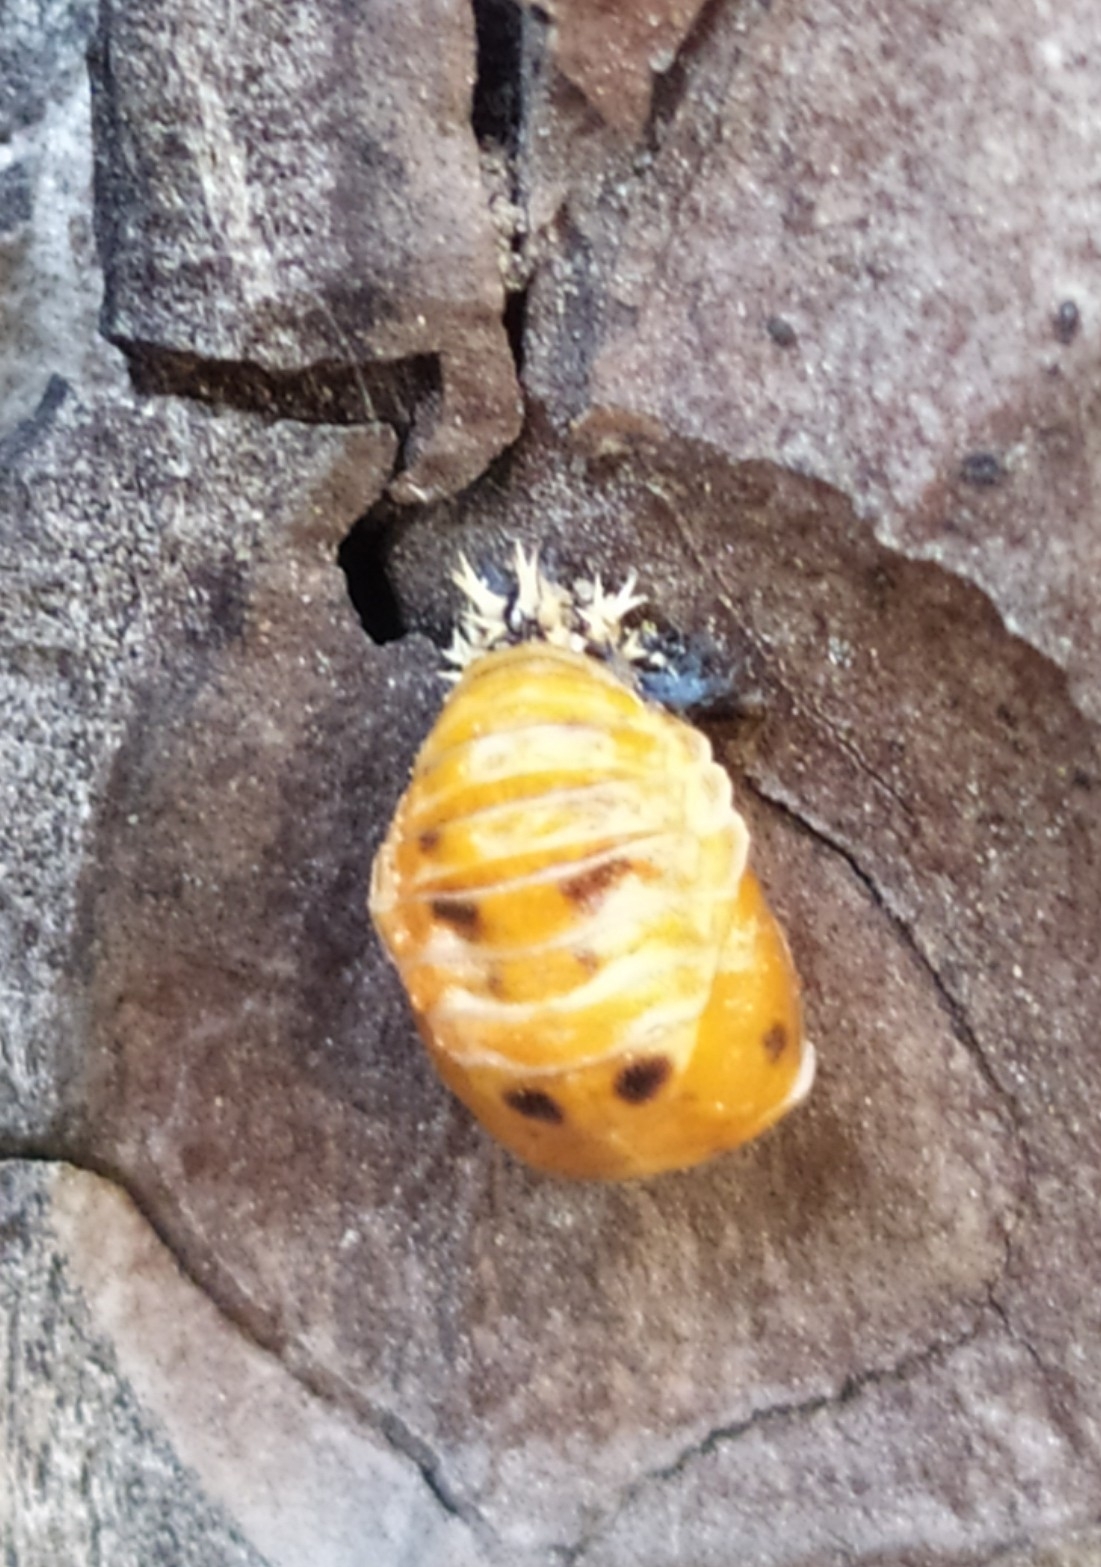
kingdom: Animalia
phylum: Arthropoda
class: Insecta
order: Coleoptera
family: Coccinellidae
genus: Harmonia
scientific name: Harmonia axyridis
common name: Harlequin ladybird
